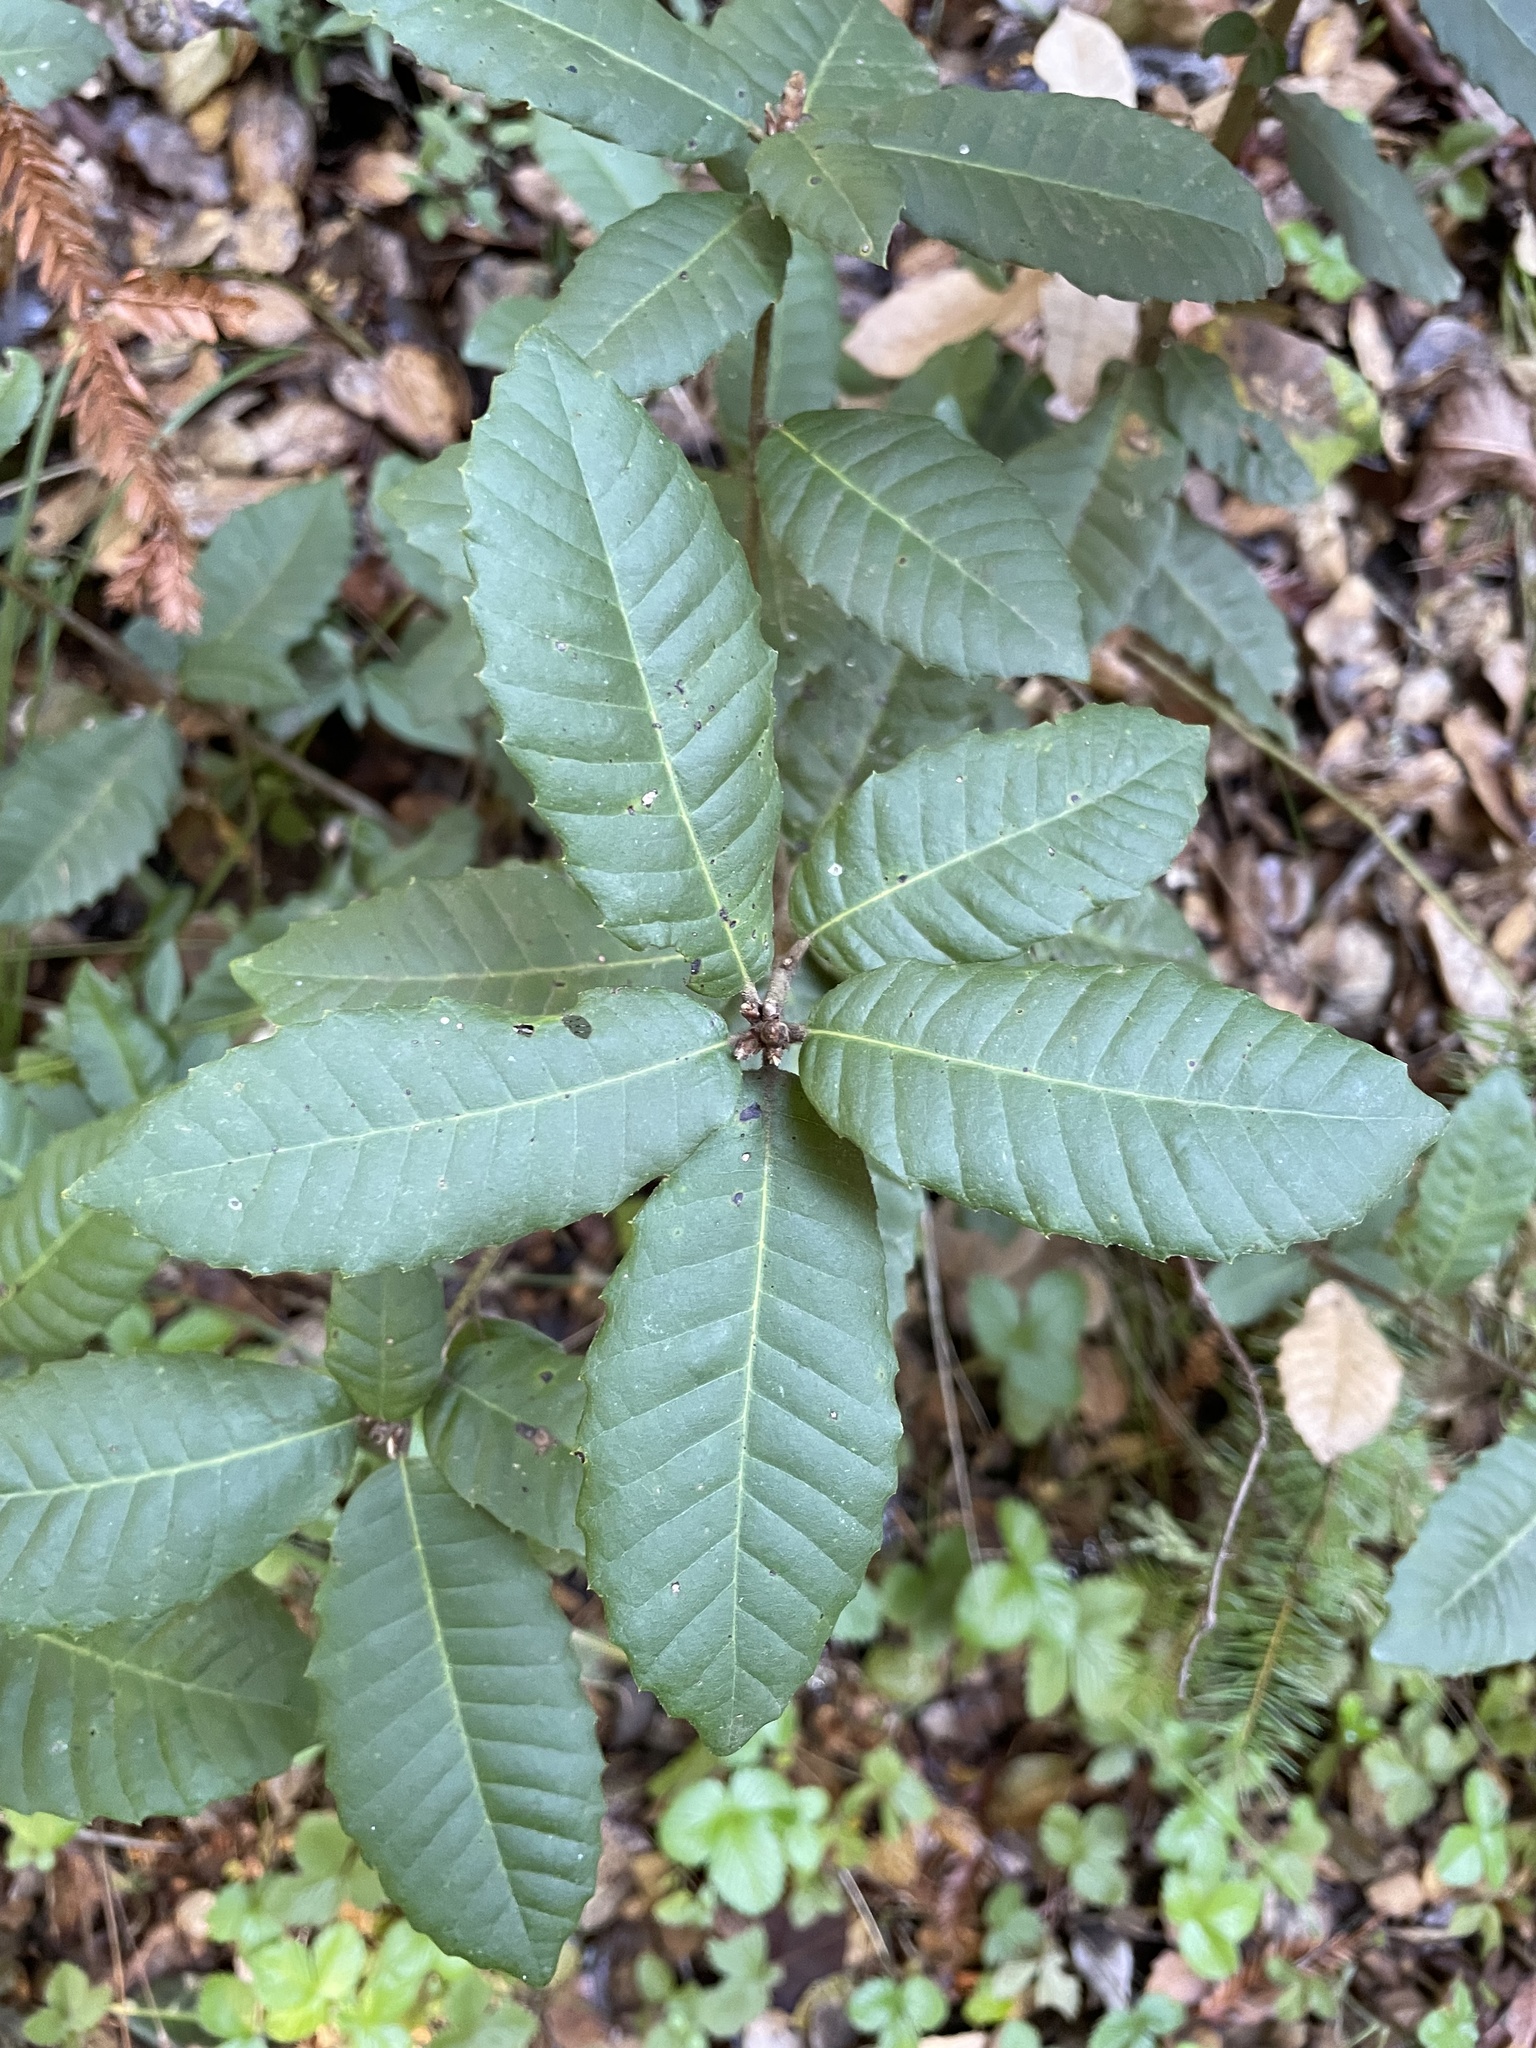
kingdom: Plantae
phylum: Tracheophyta
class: Magnoliopsida
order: Fagales
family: Fagaceae
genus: Notholithocarpus
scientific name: Notholithocarpus densiflorus
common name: Tan bark oak
